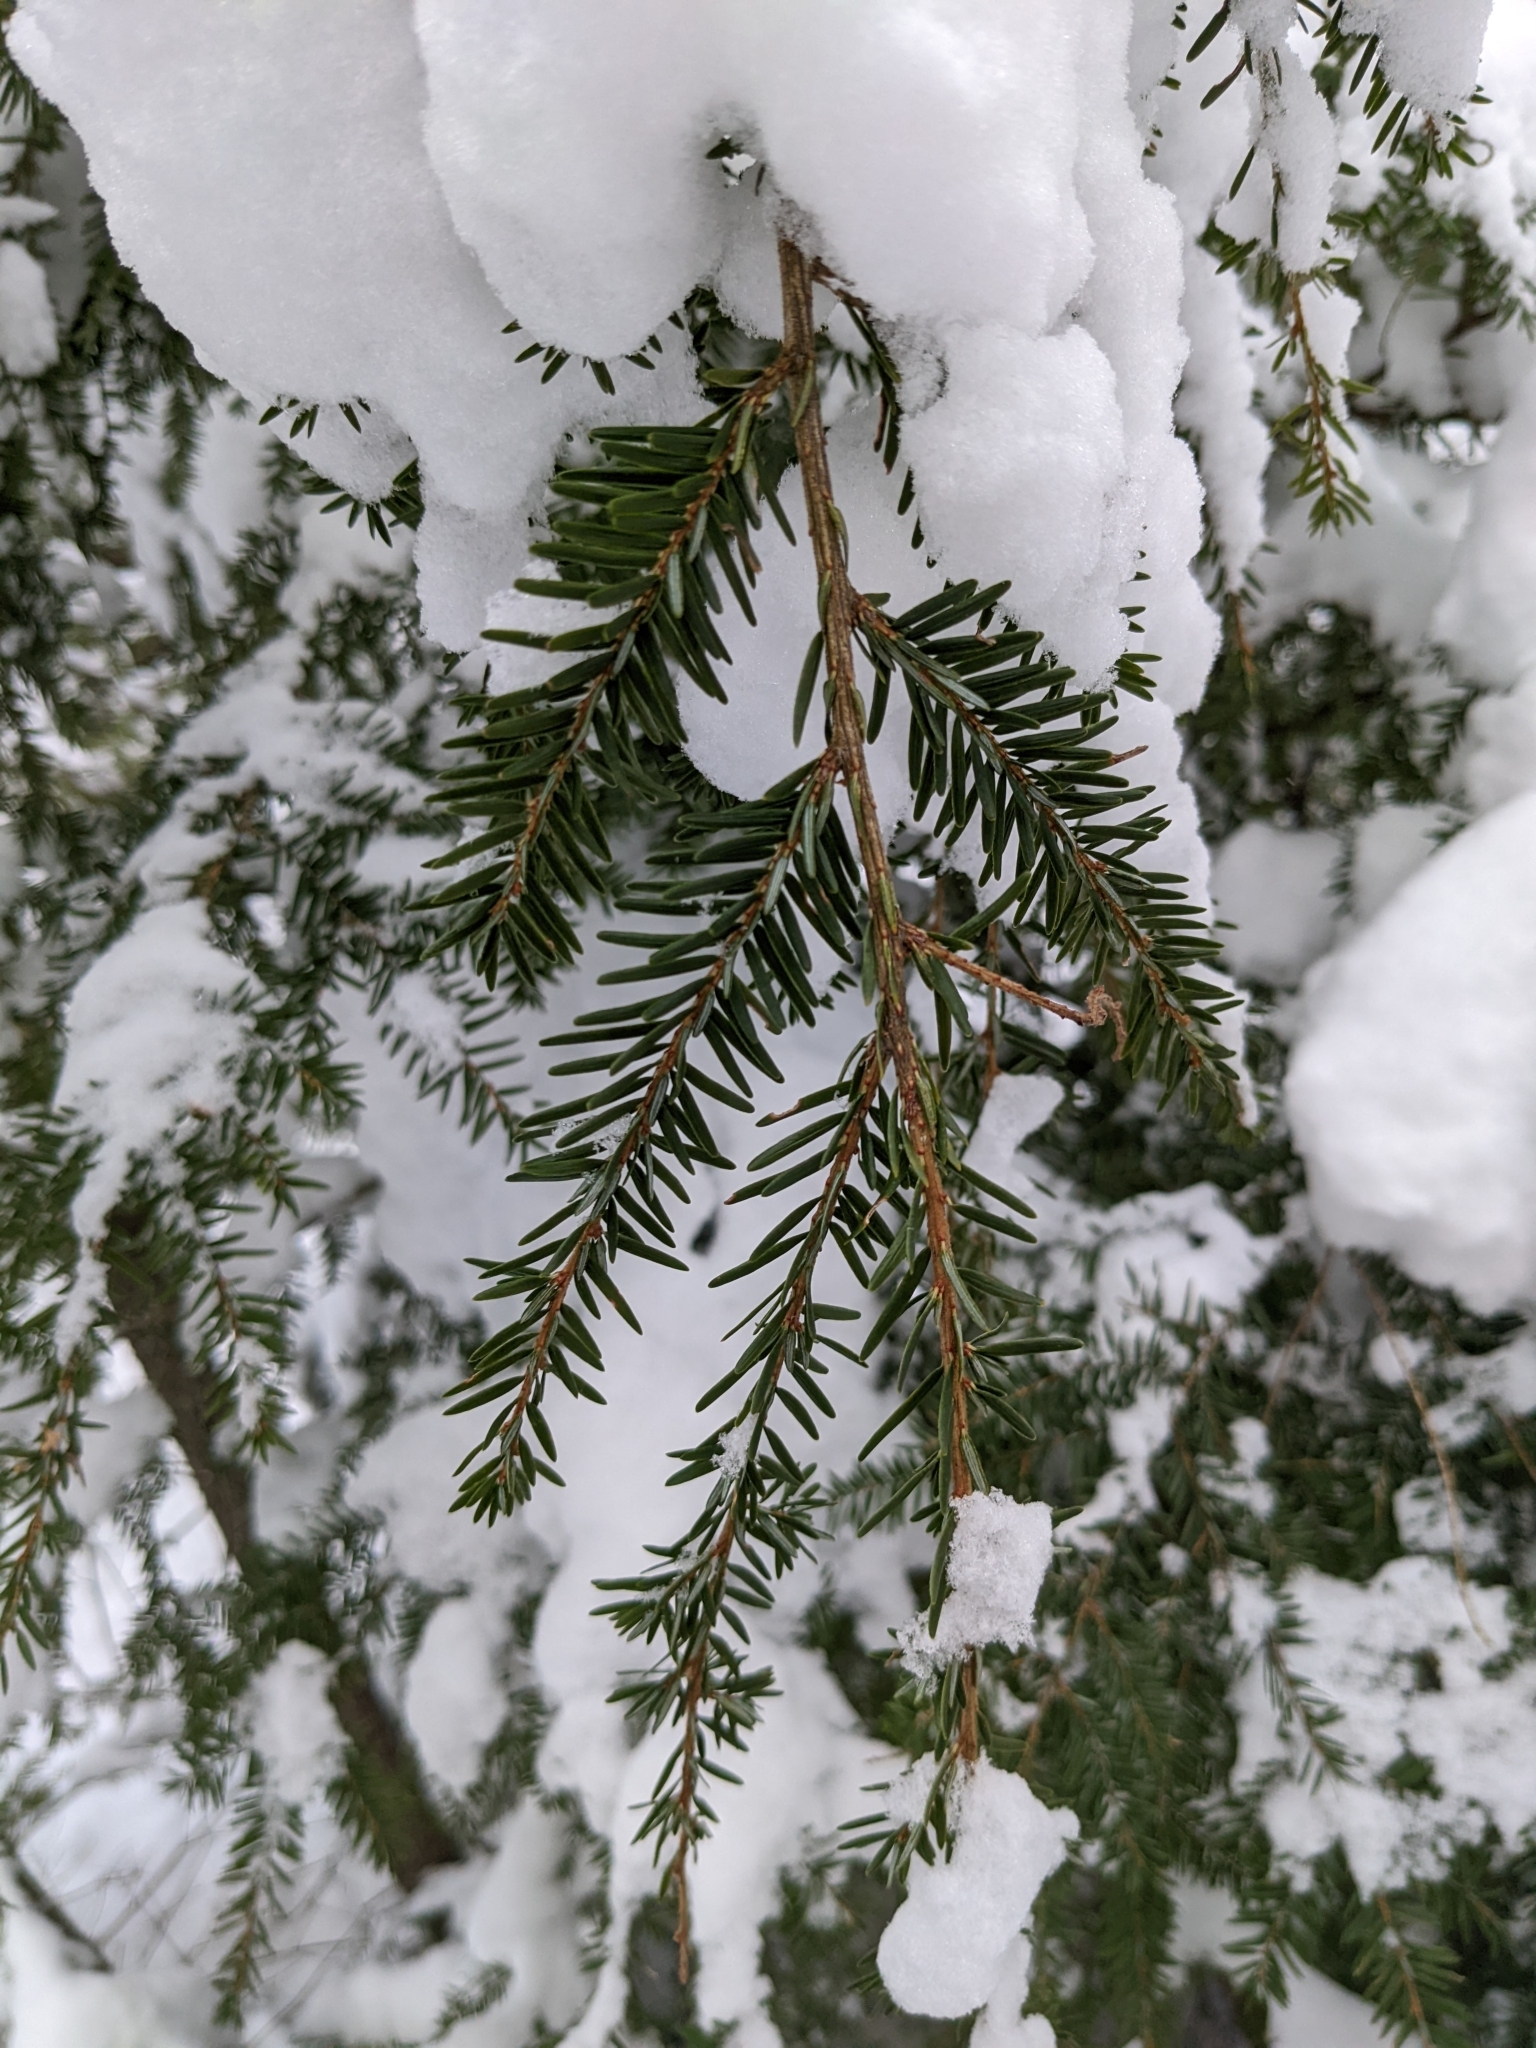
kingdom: Plantae
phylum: Tracheophyta
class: Pinopsida
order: Pinales
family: Pinaceae
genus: Tsuga
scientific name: Tsuga canadensis
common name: Eastern hemlock
